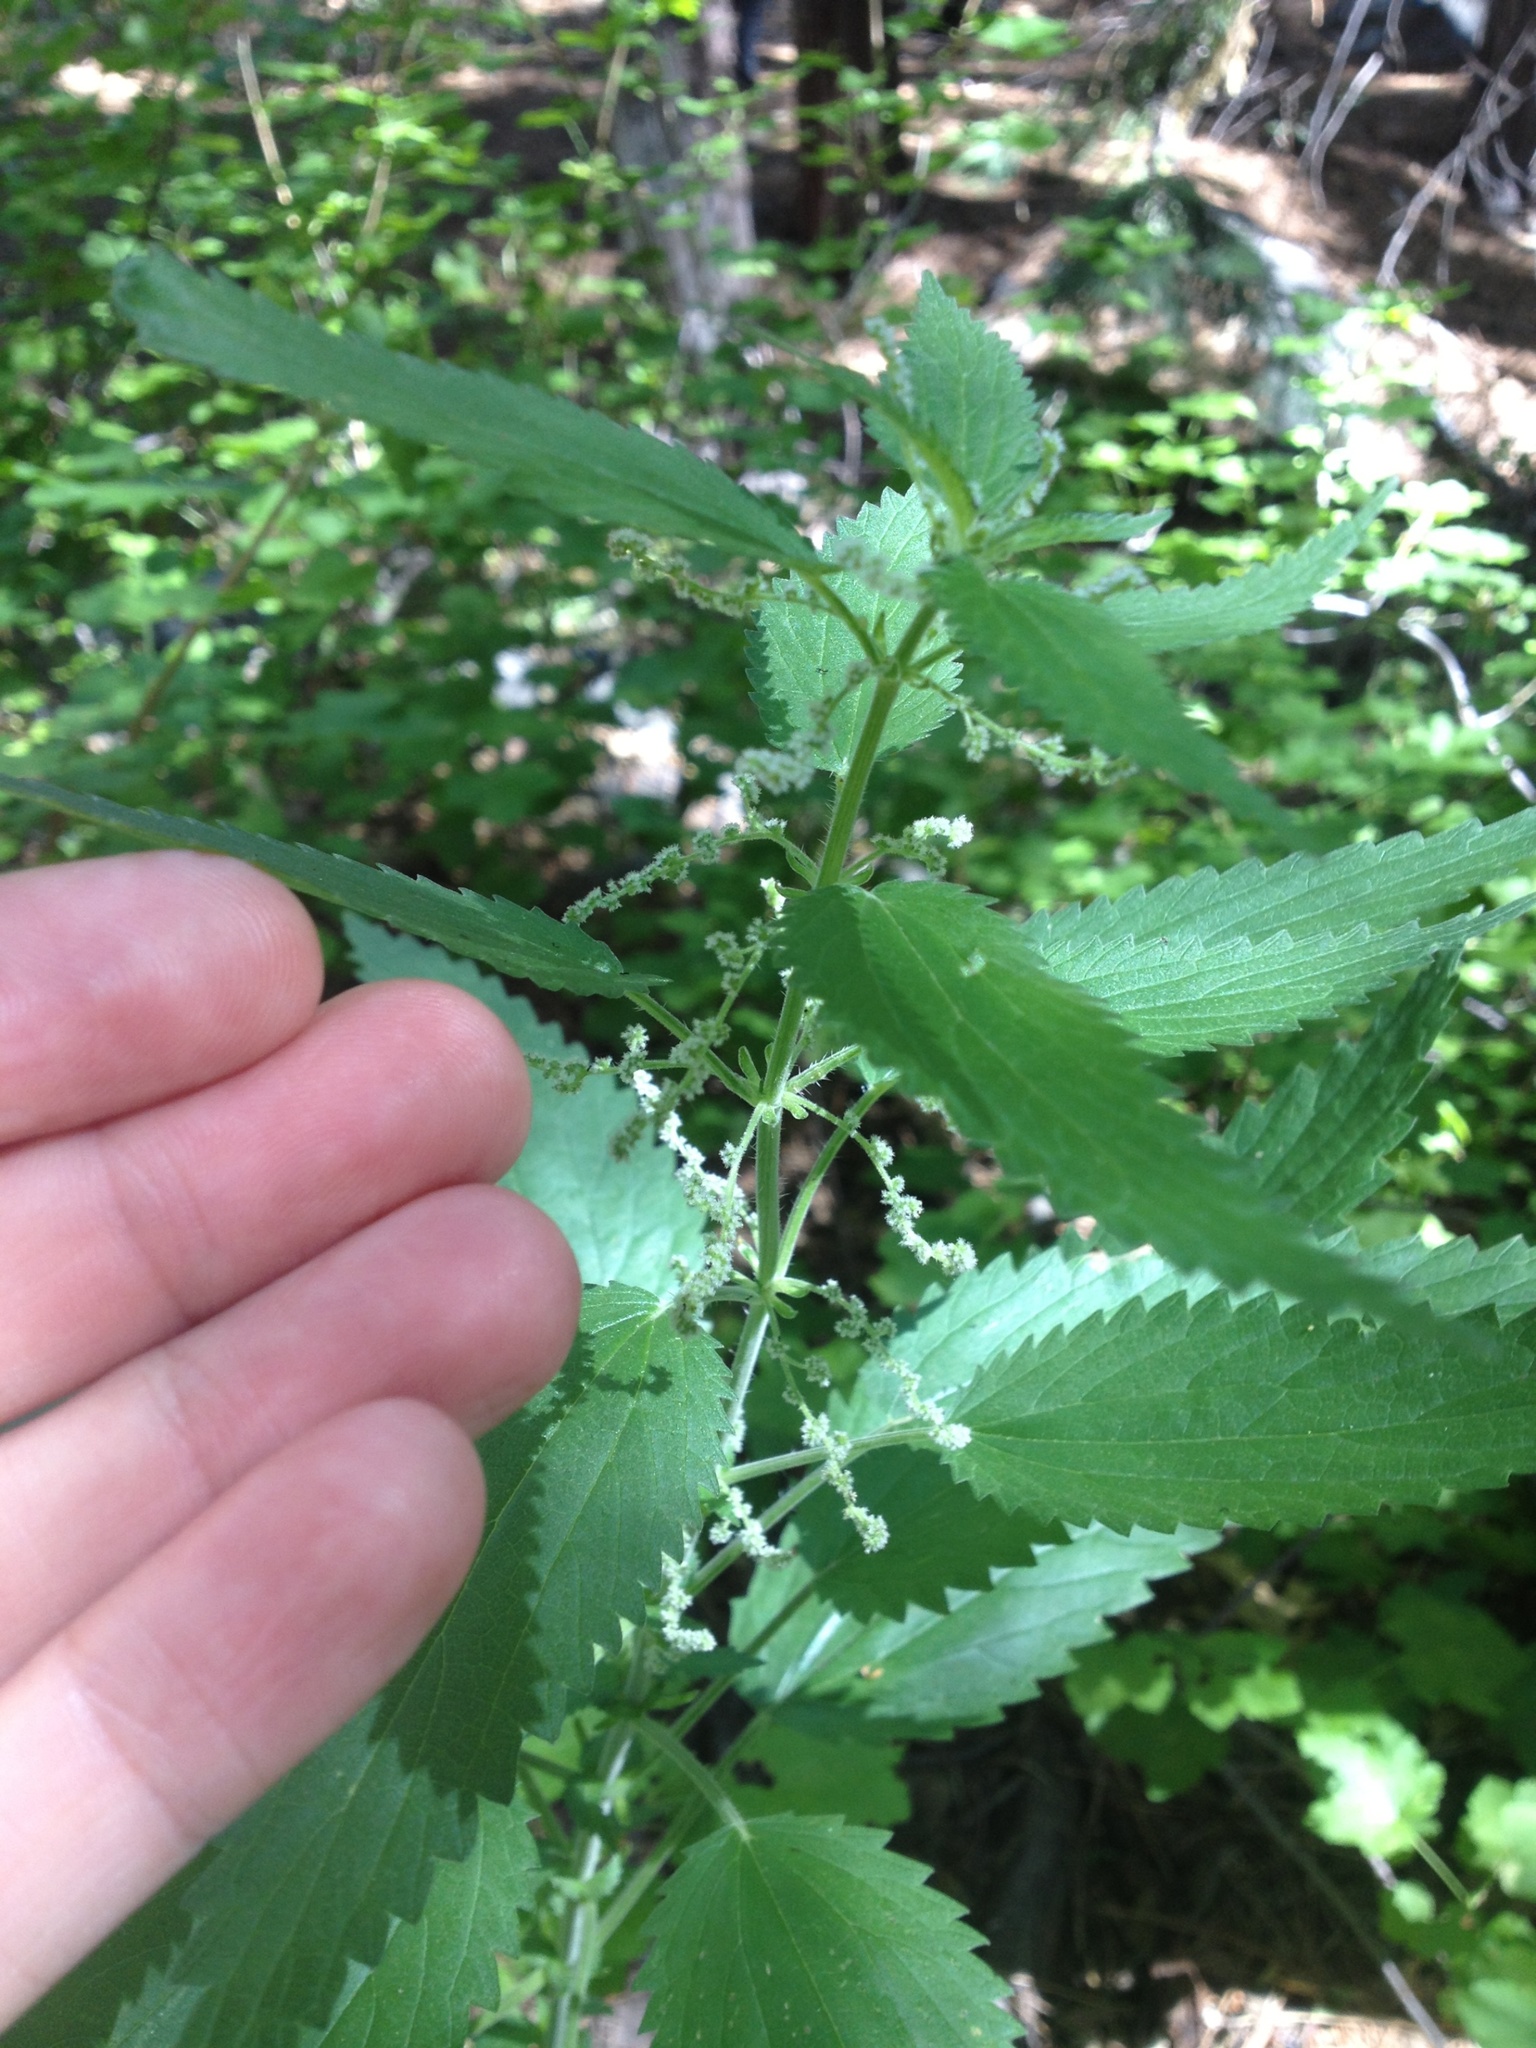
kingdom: Plantae
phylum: Tracheophyta
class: Magnoliopsida
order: Rosales
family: Urticaceae
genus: Urtica
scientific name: Urtica gracilis
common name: Slender stinging nettle
